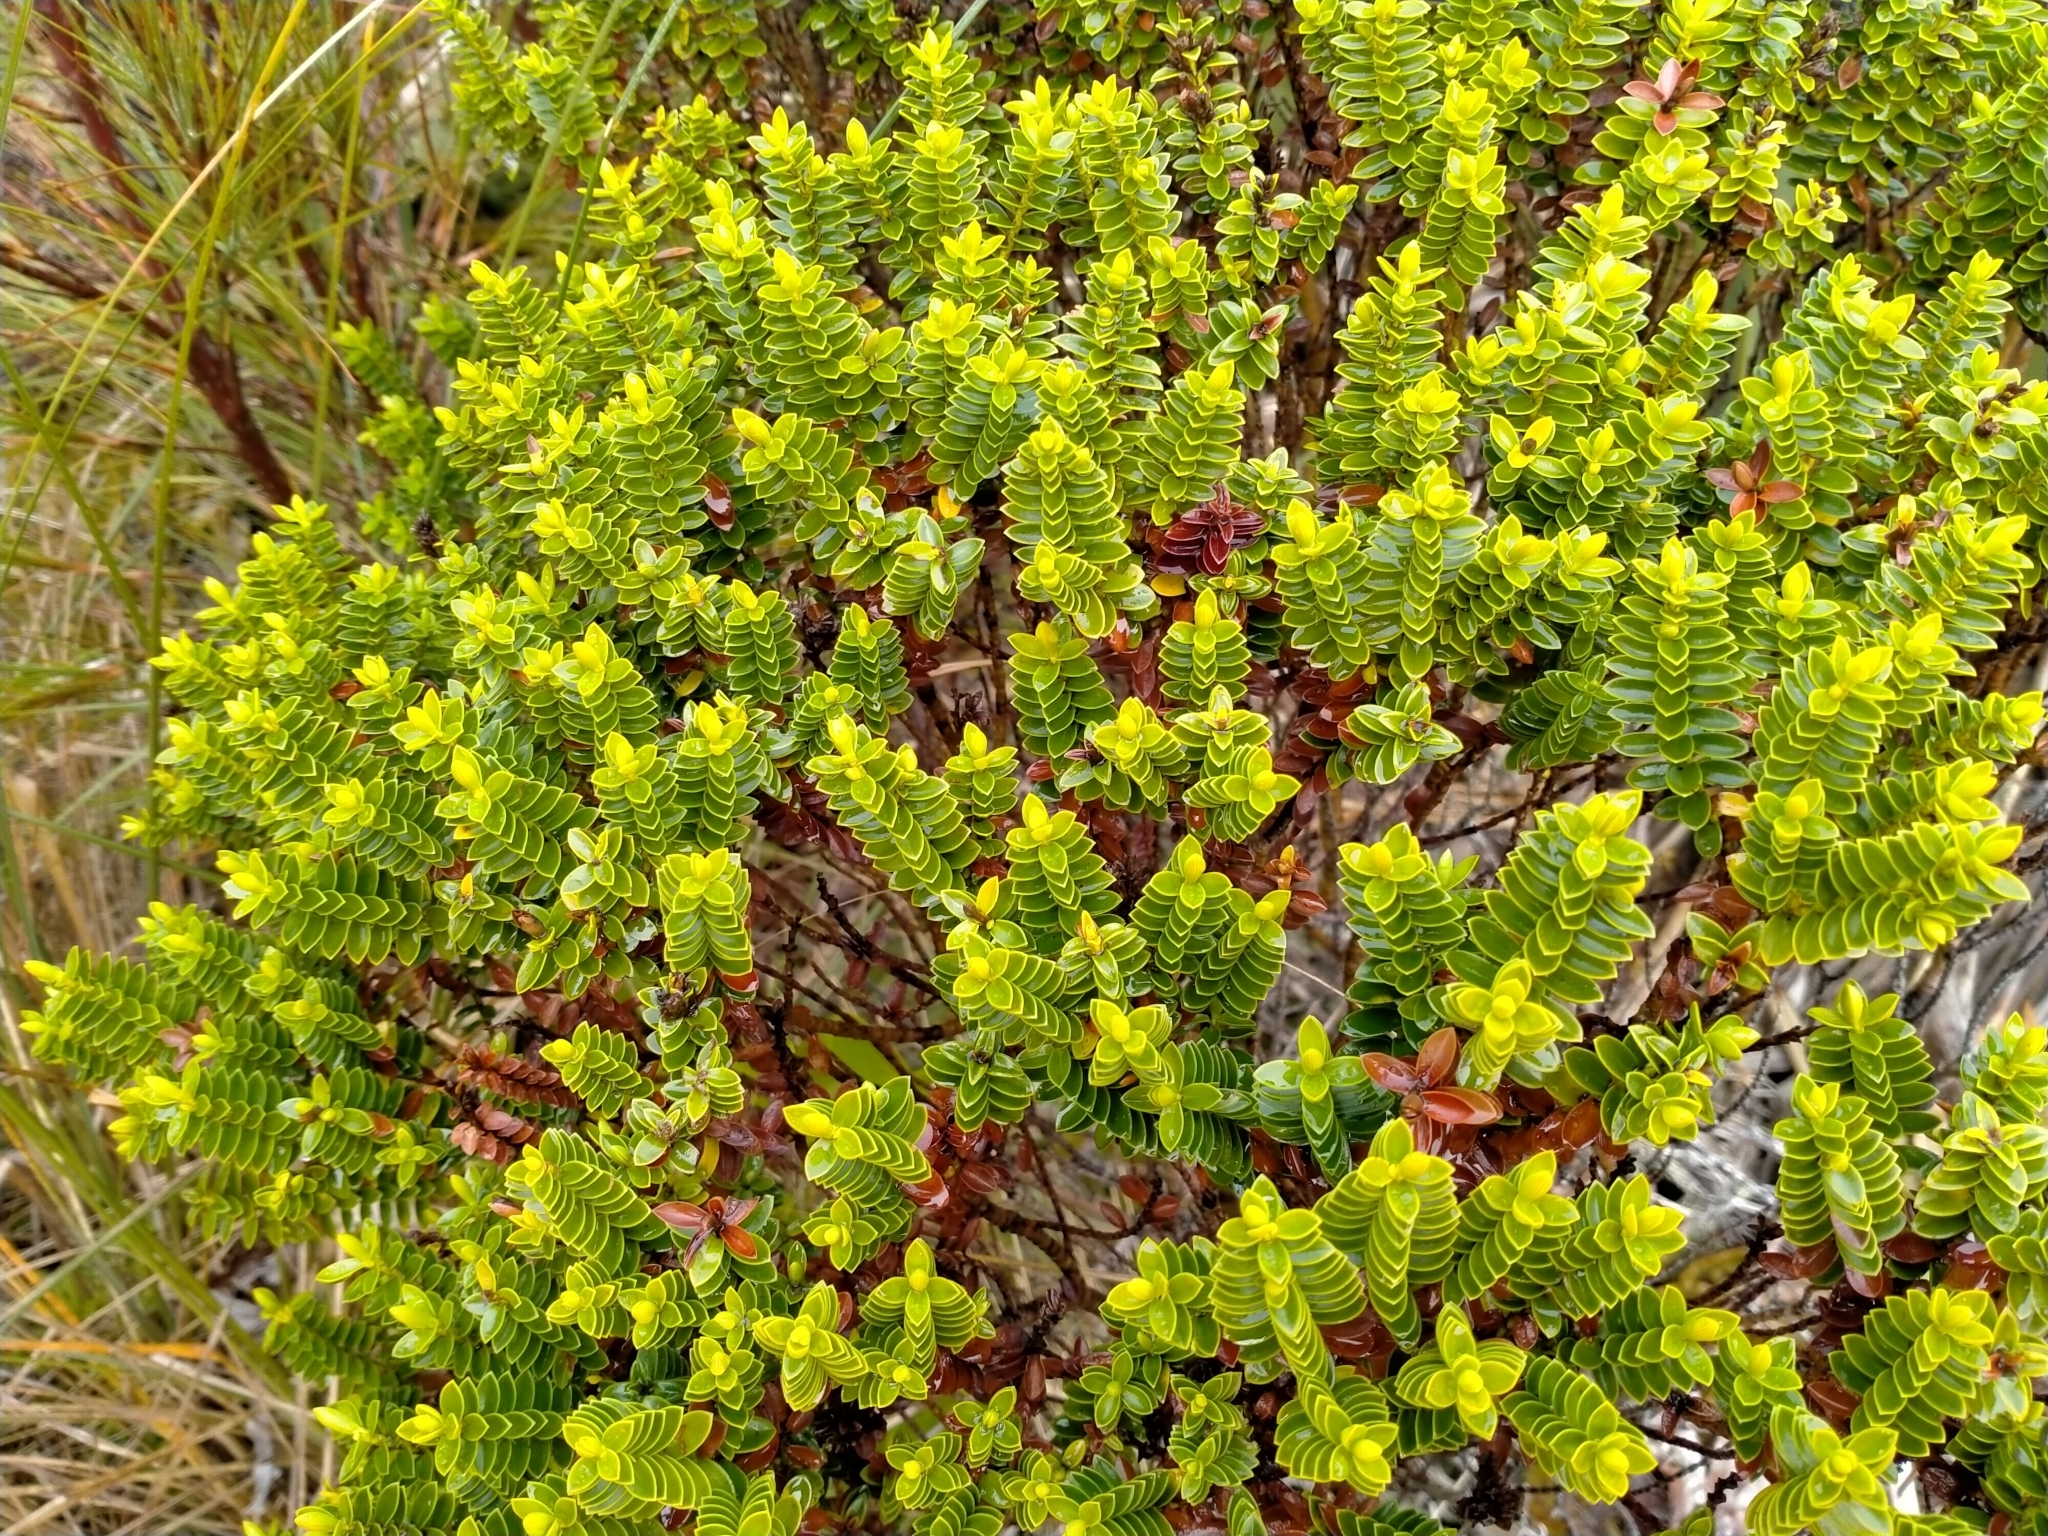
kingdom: Plantae
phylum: Tracheophyta
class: Magnoliopsida
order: Lamiales
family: Plantaginaceae
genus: Veronica
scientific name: Veronica odora
